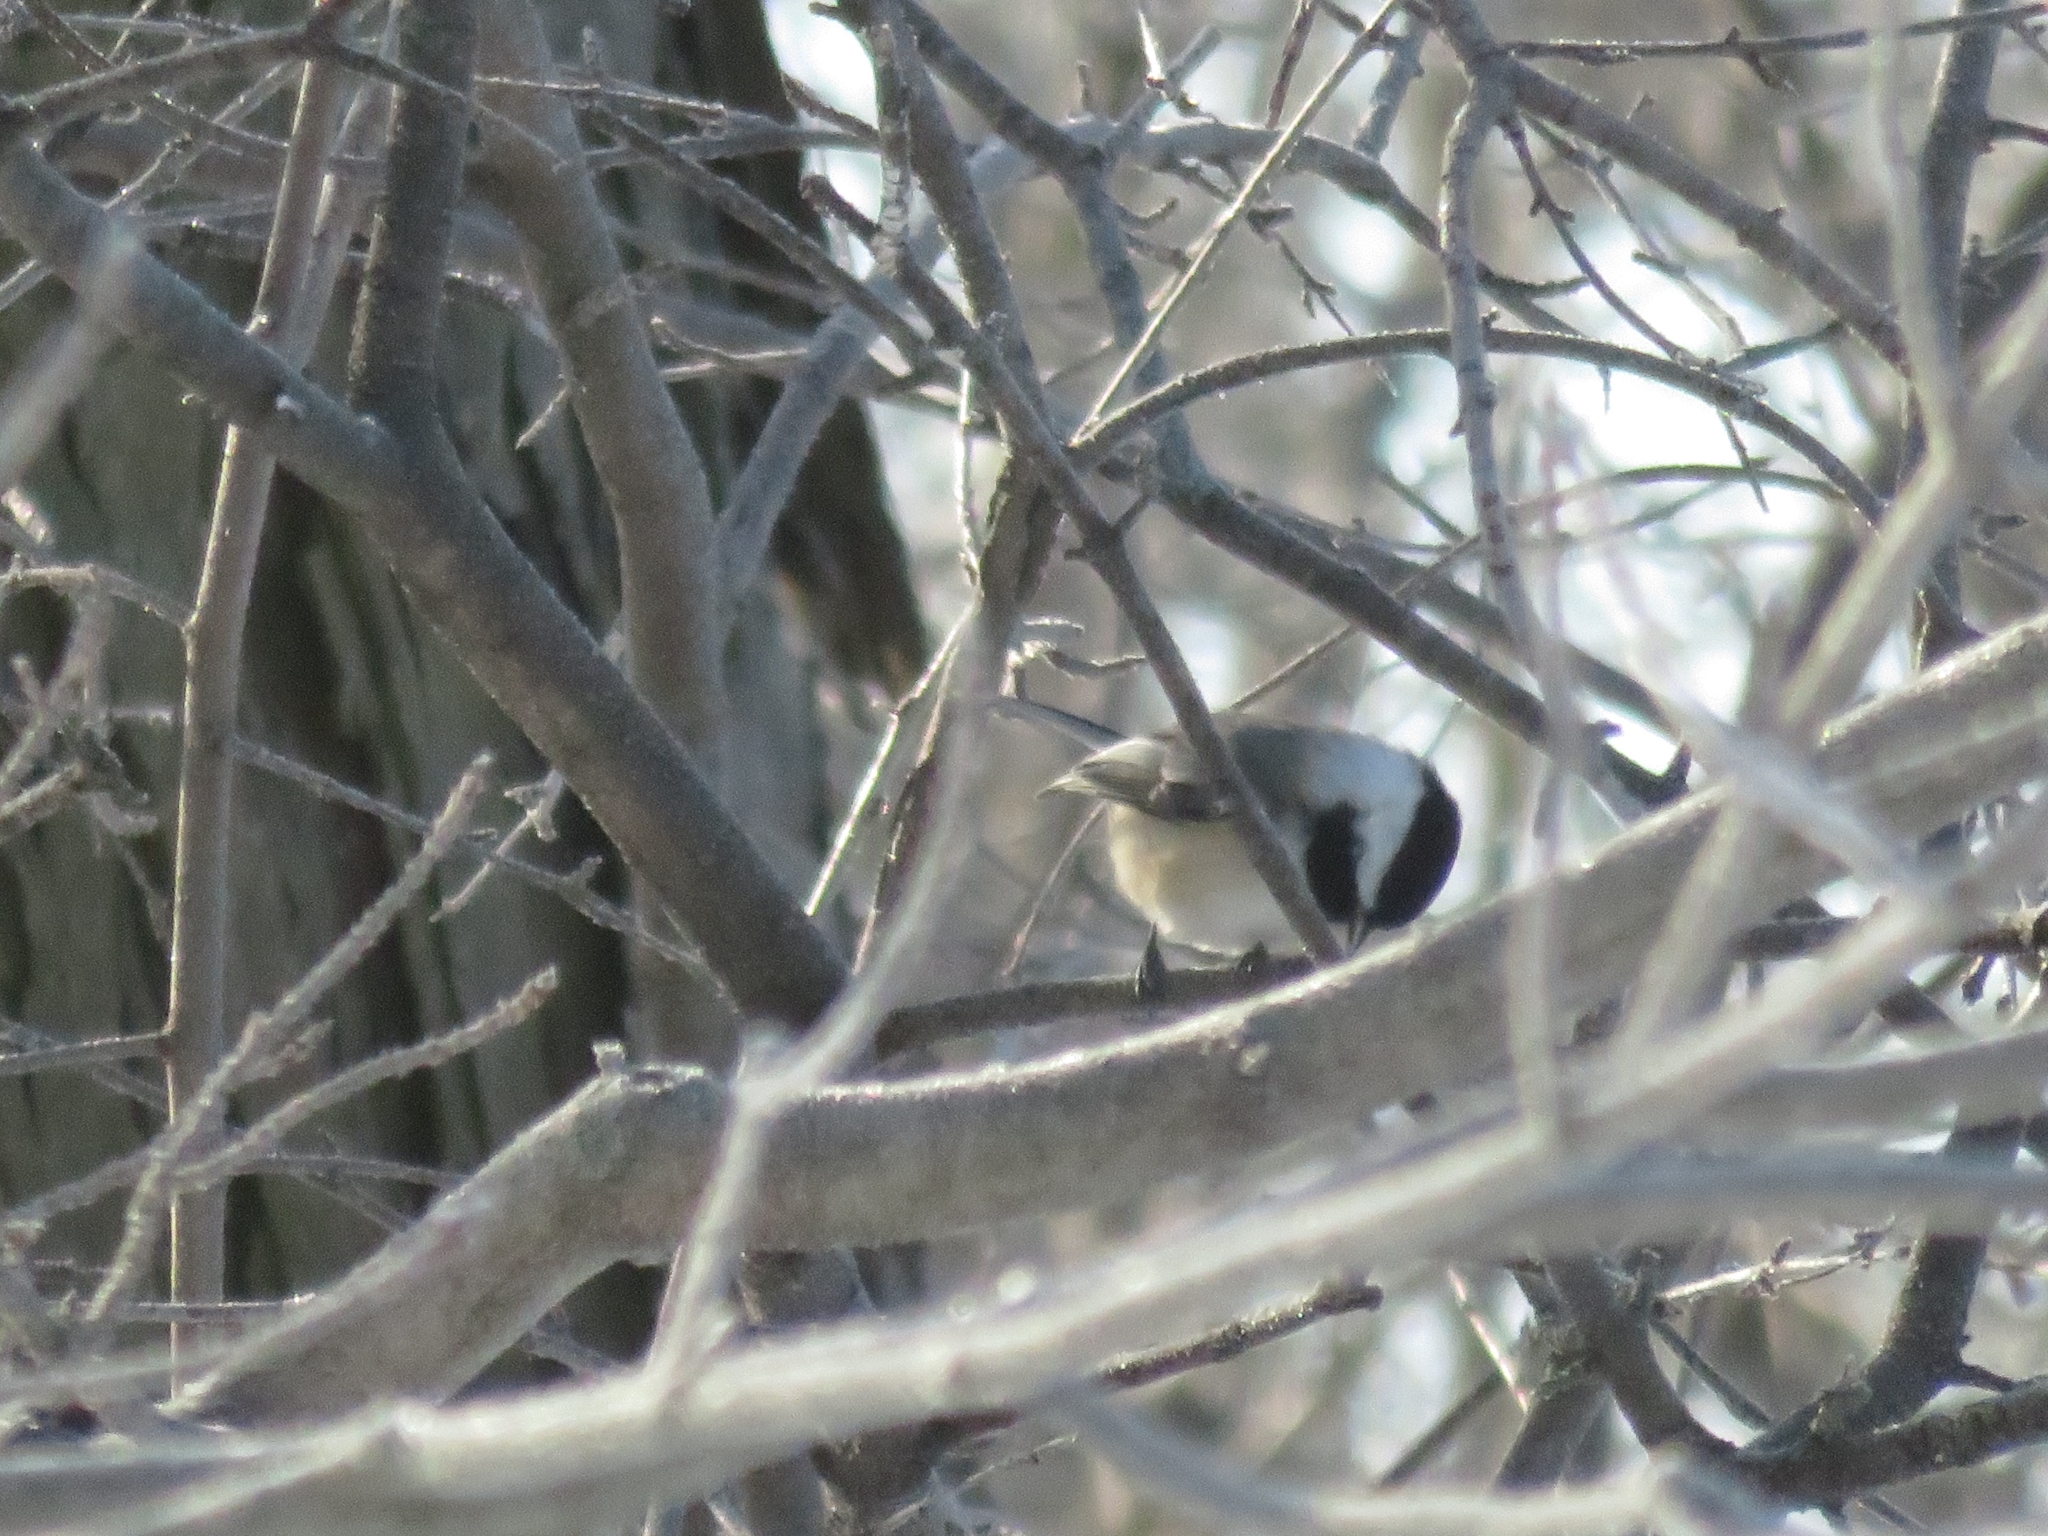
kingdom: Animalia
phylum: Chordata
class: Aves
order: Passeriformes
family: Paridae
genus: Poecile
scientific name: Poecile atricapillus
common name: Black-capped chickadee
